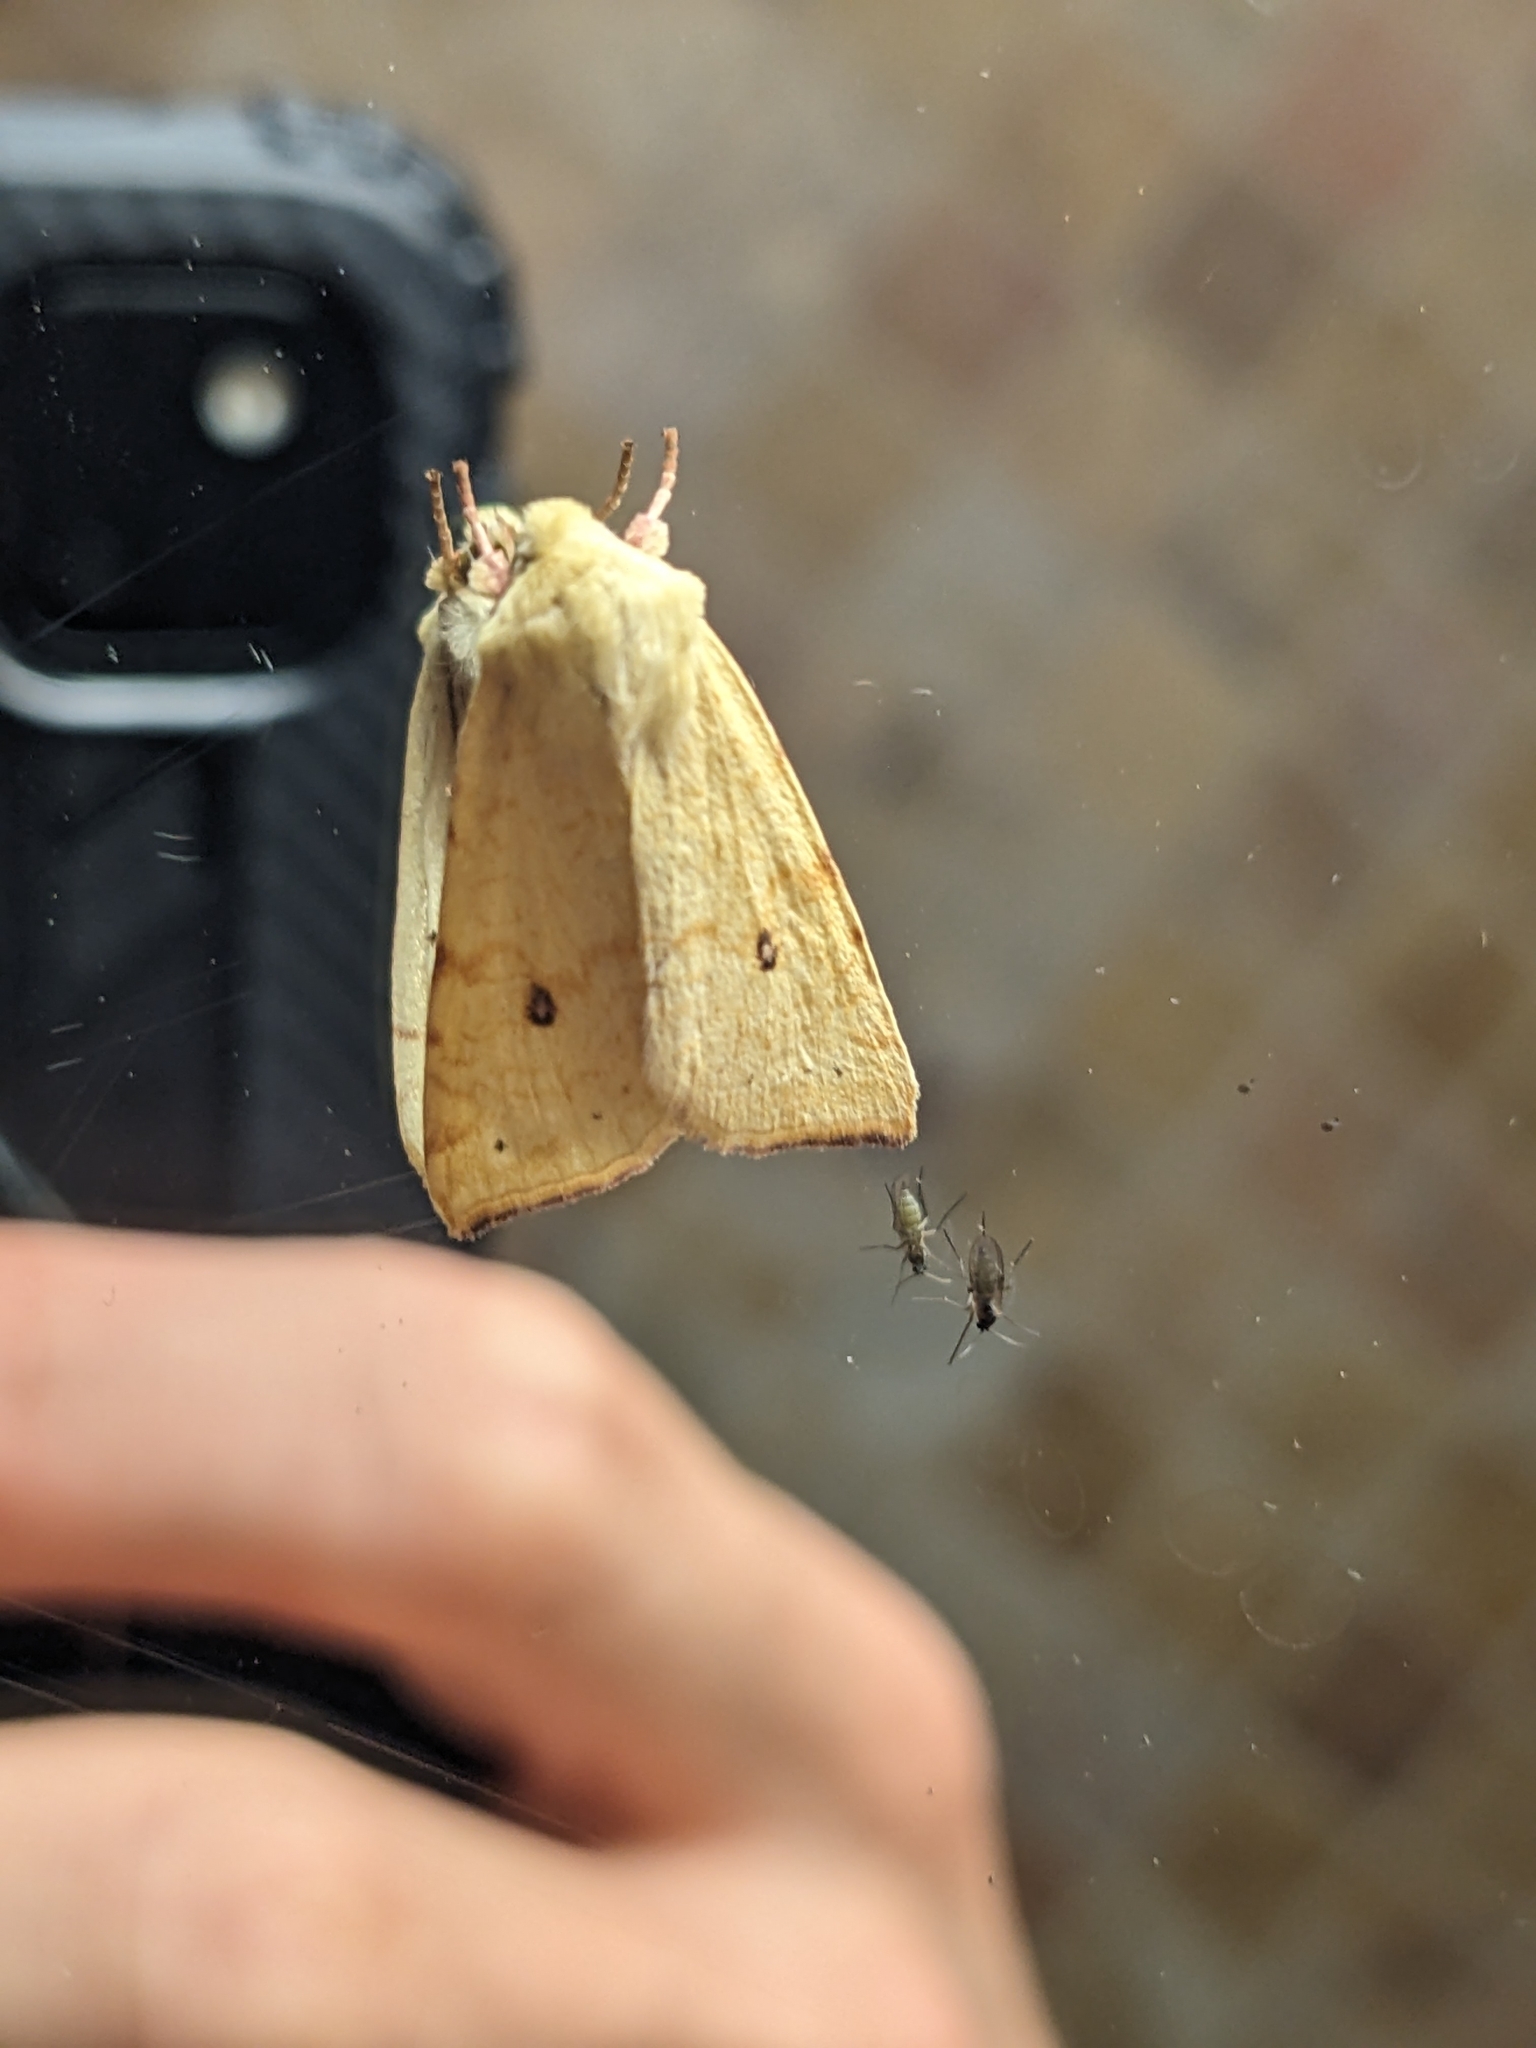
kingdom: Animalia
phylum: Arthropoda
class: Insecta
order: Lepidoptera
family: Noctuidae
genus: Xanthia
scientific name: Xanthia icteritia
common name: The sallow
